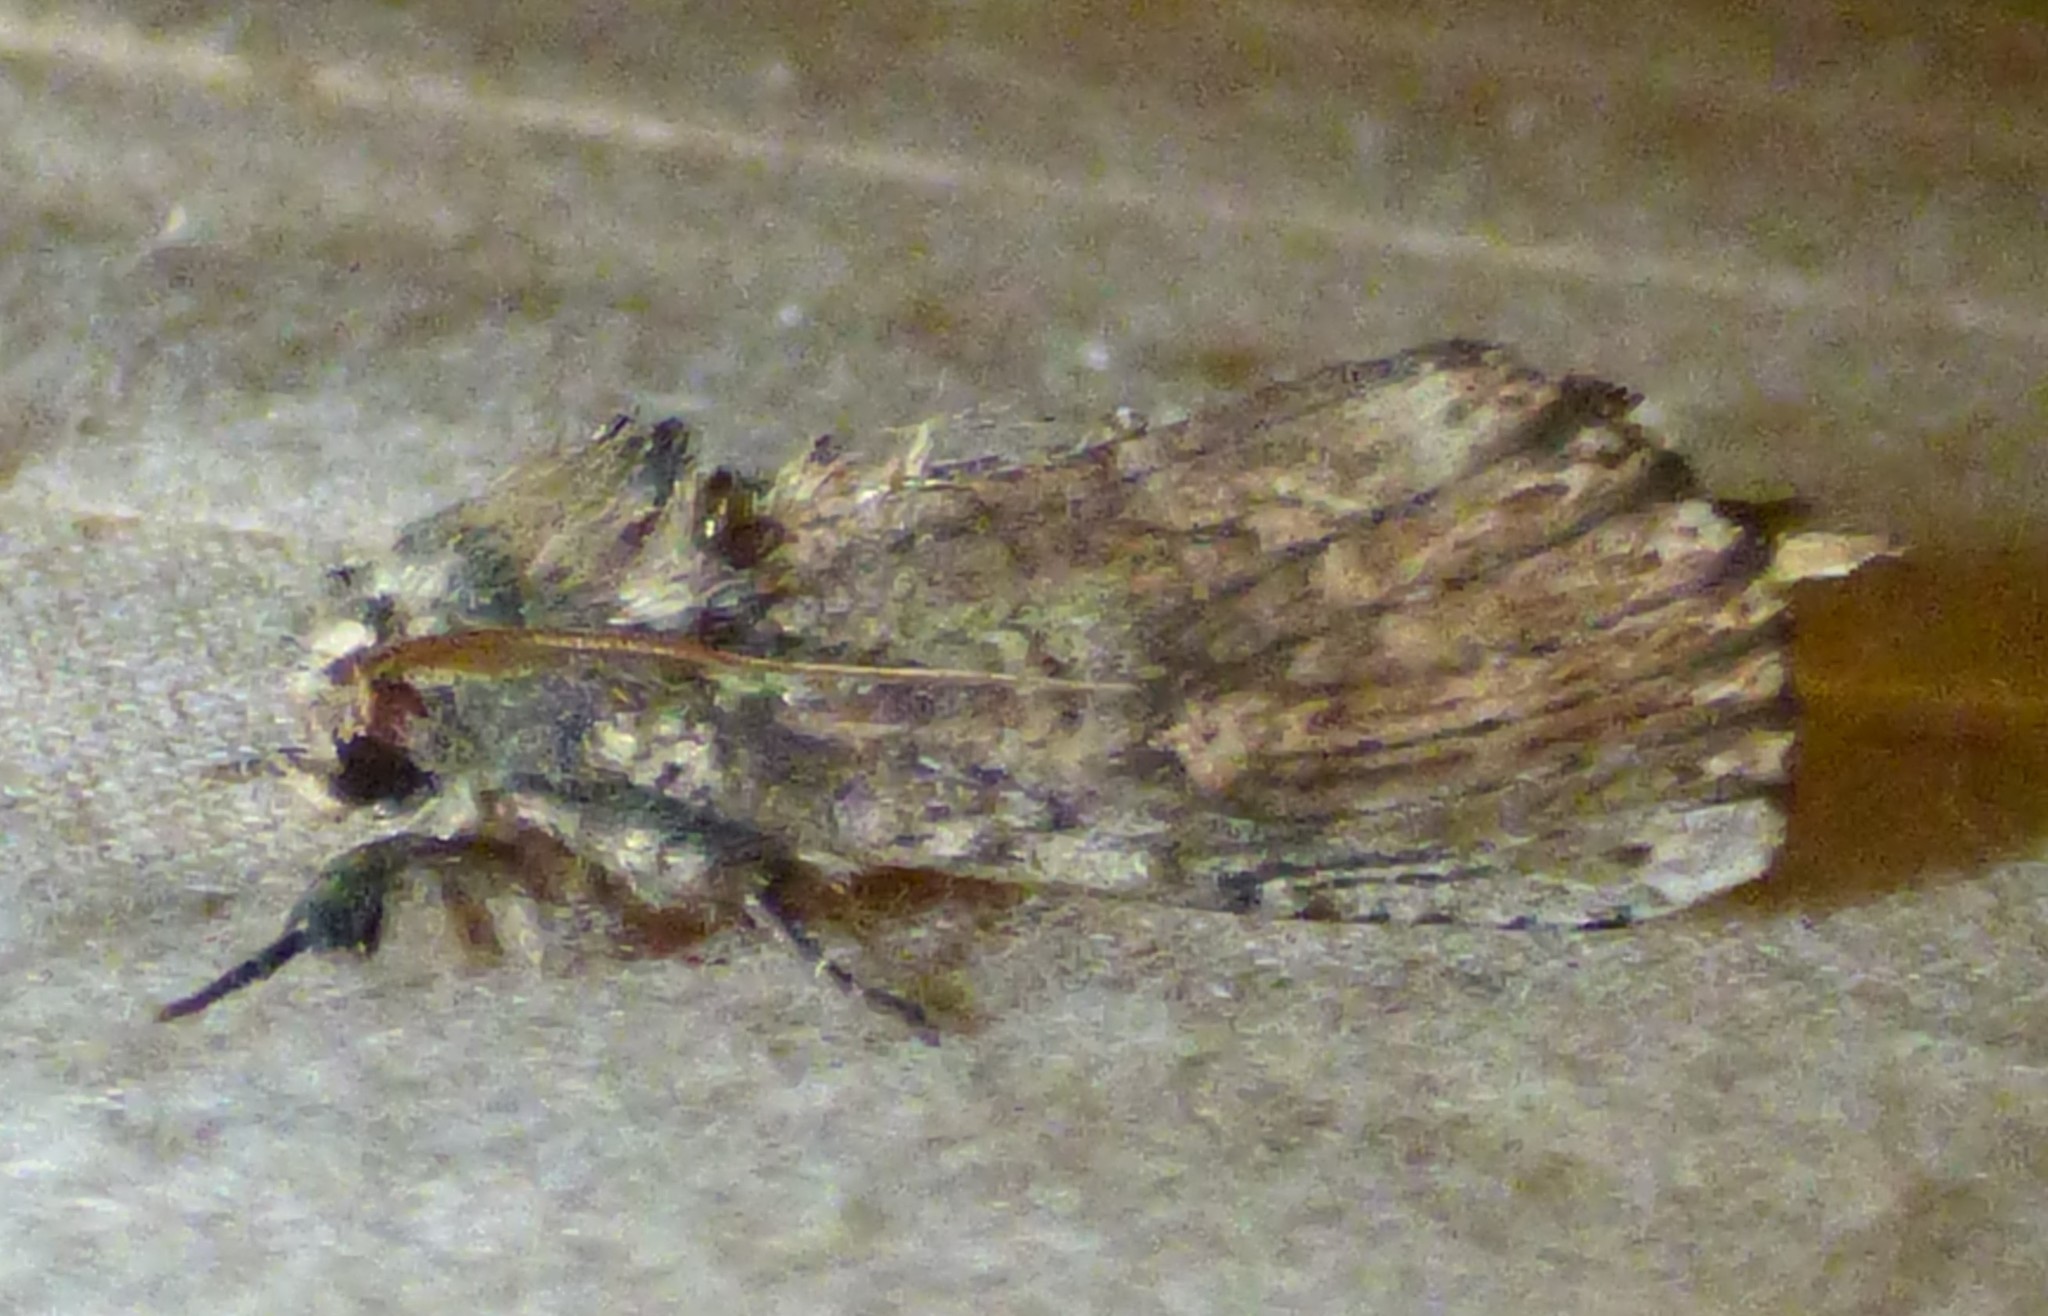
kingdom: Animalia
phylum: Arthropoda
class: Insecta
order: Lepidoptera
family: Notodontidae
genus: Schizura
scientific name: Schizura ipomaeae
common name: Morning-glory prominent
